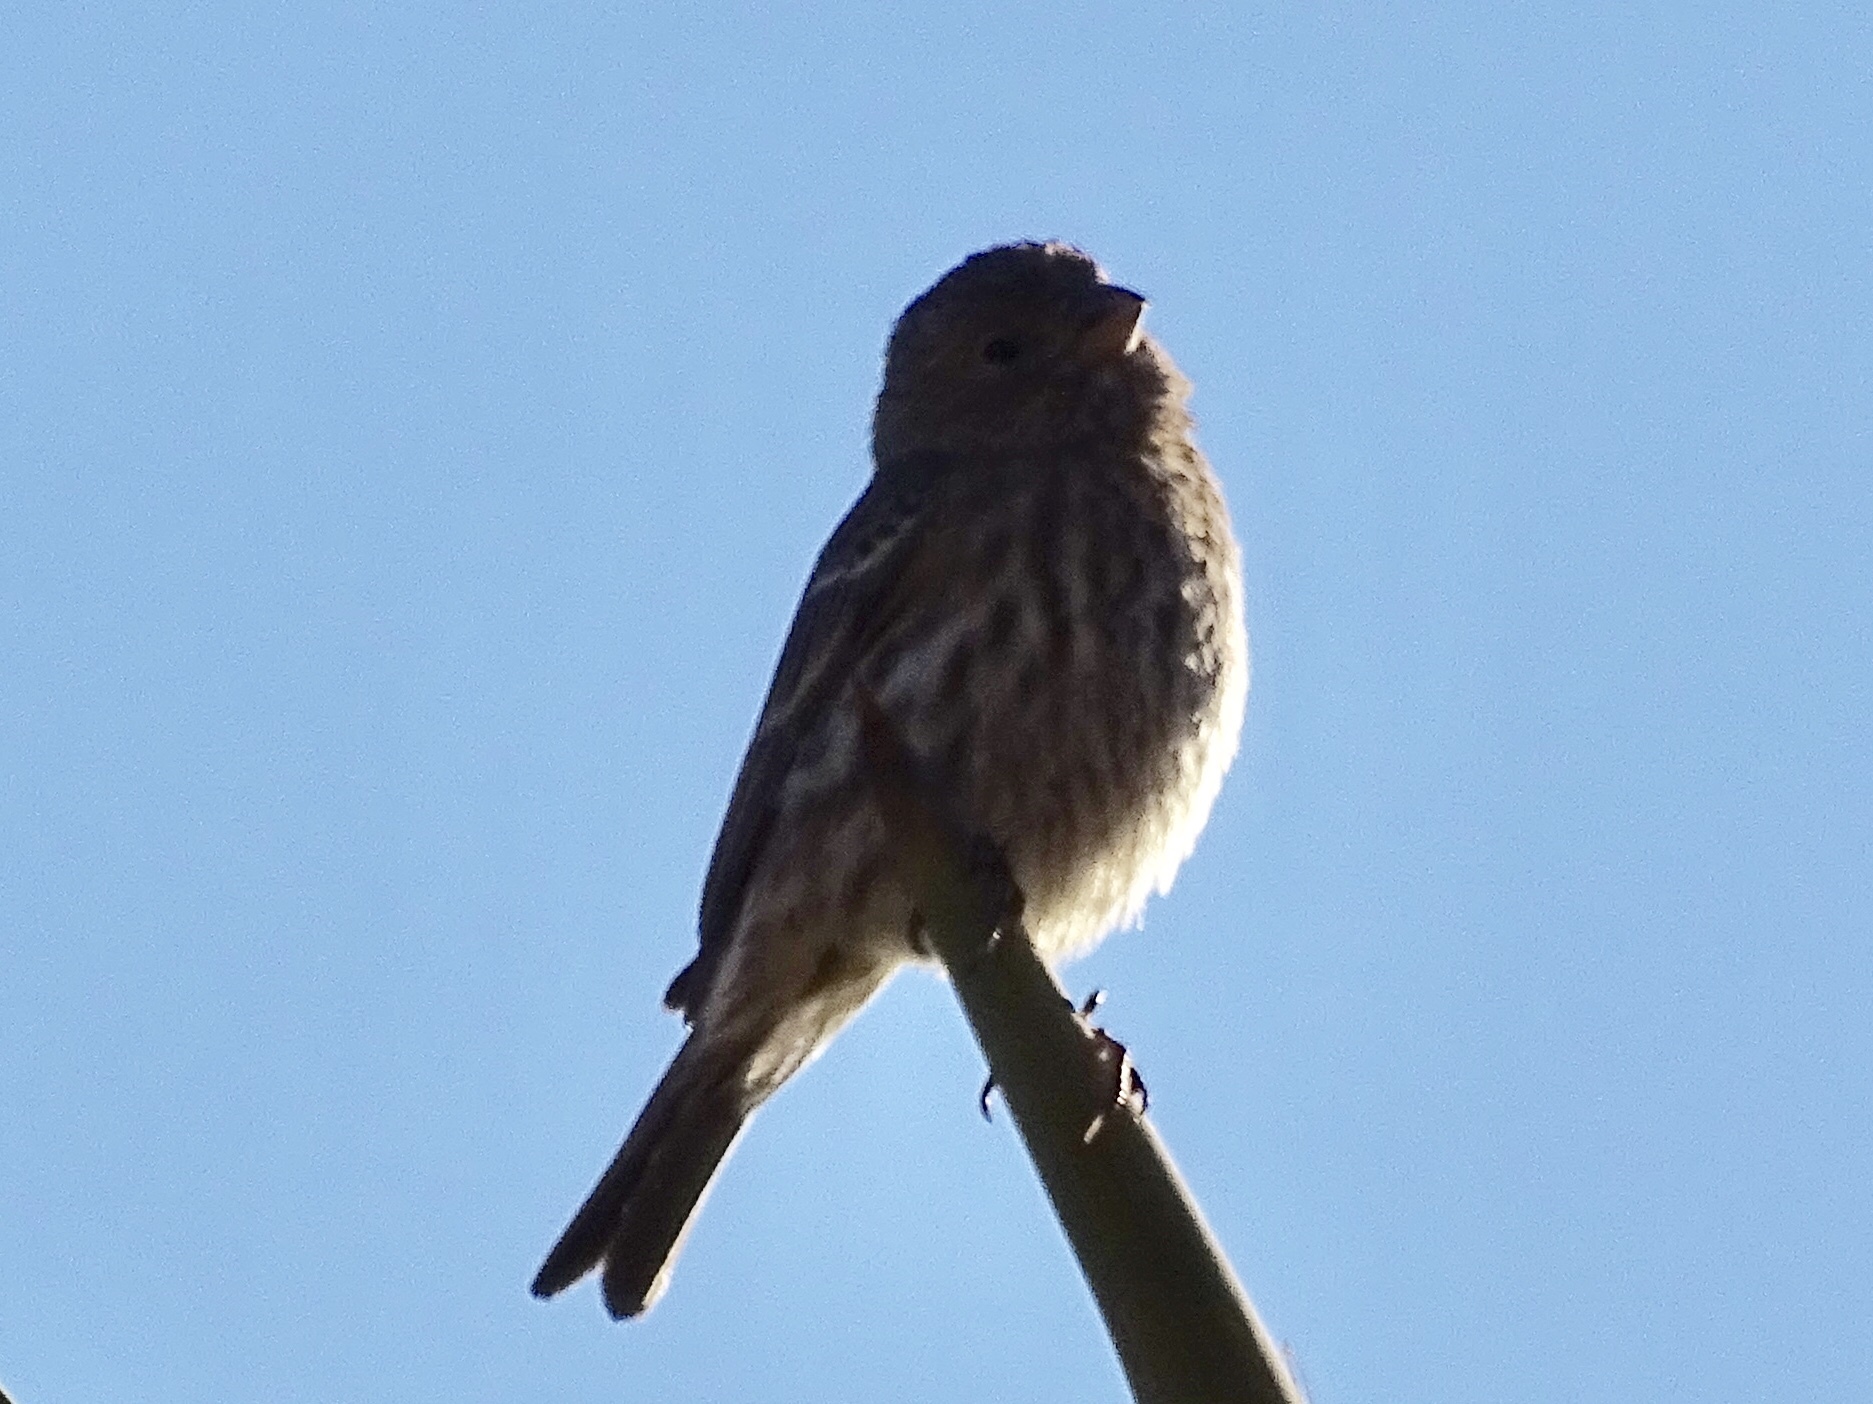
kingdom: Animalia
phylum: Chordata
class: Aves
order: Passeriformes
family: Fringillidae
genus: Haemorhous
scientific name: Haemorhous mexicanus
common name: House finch
